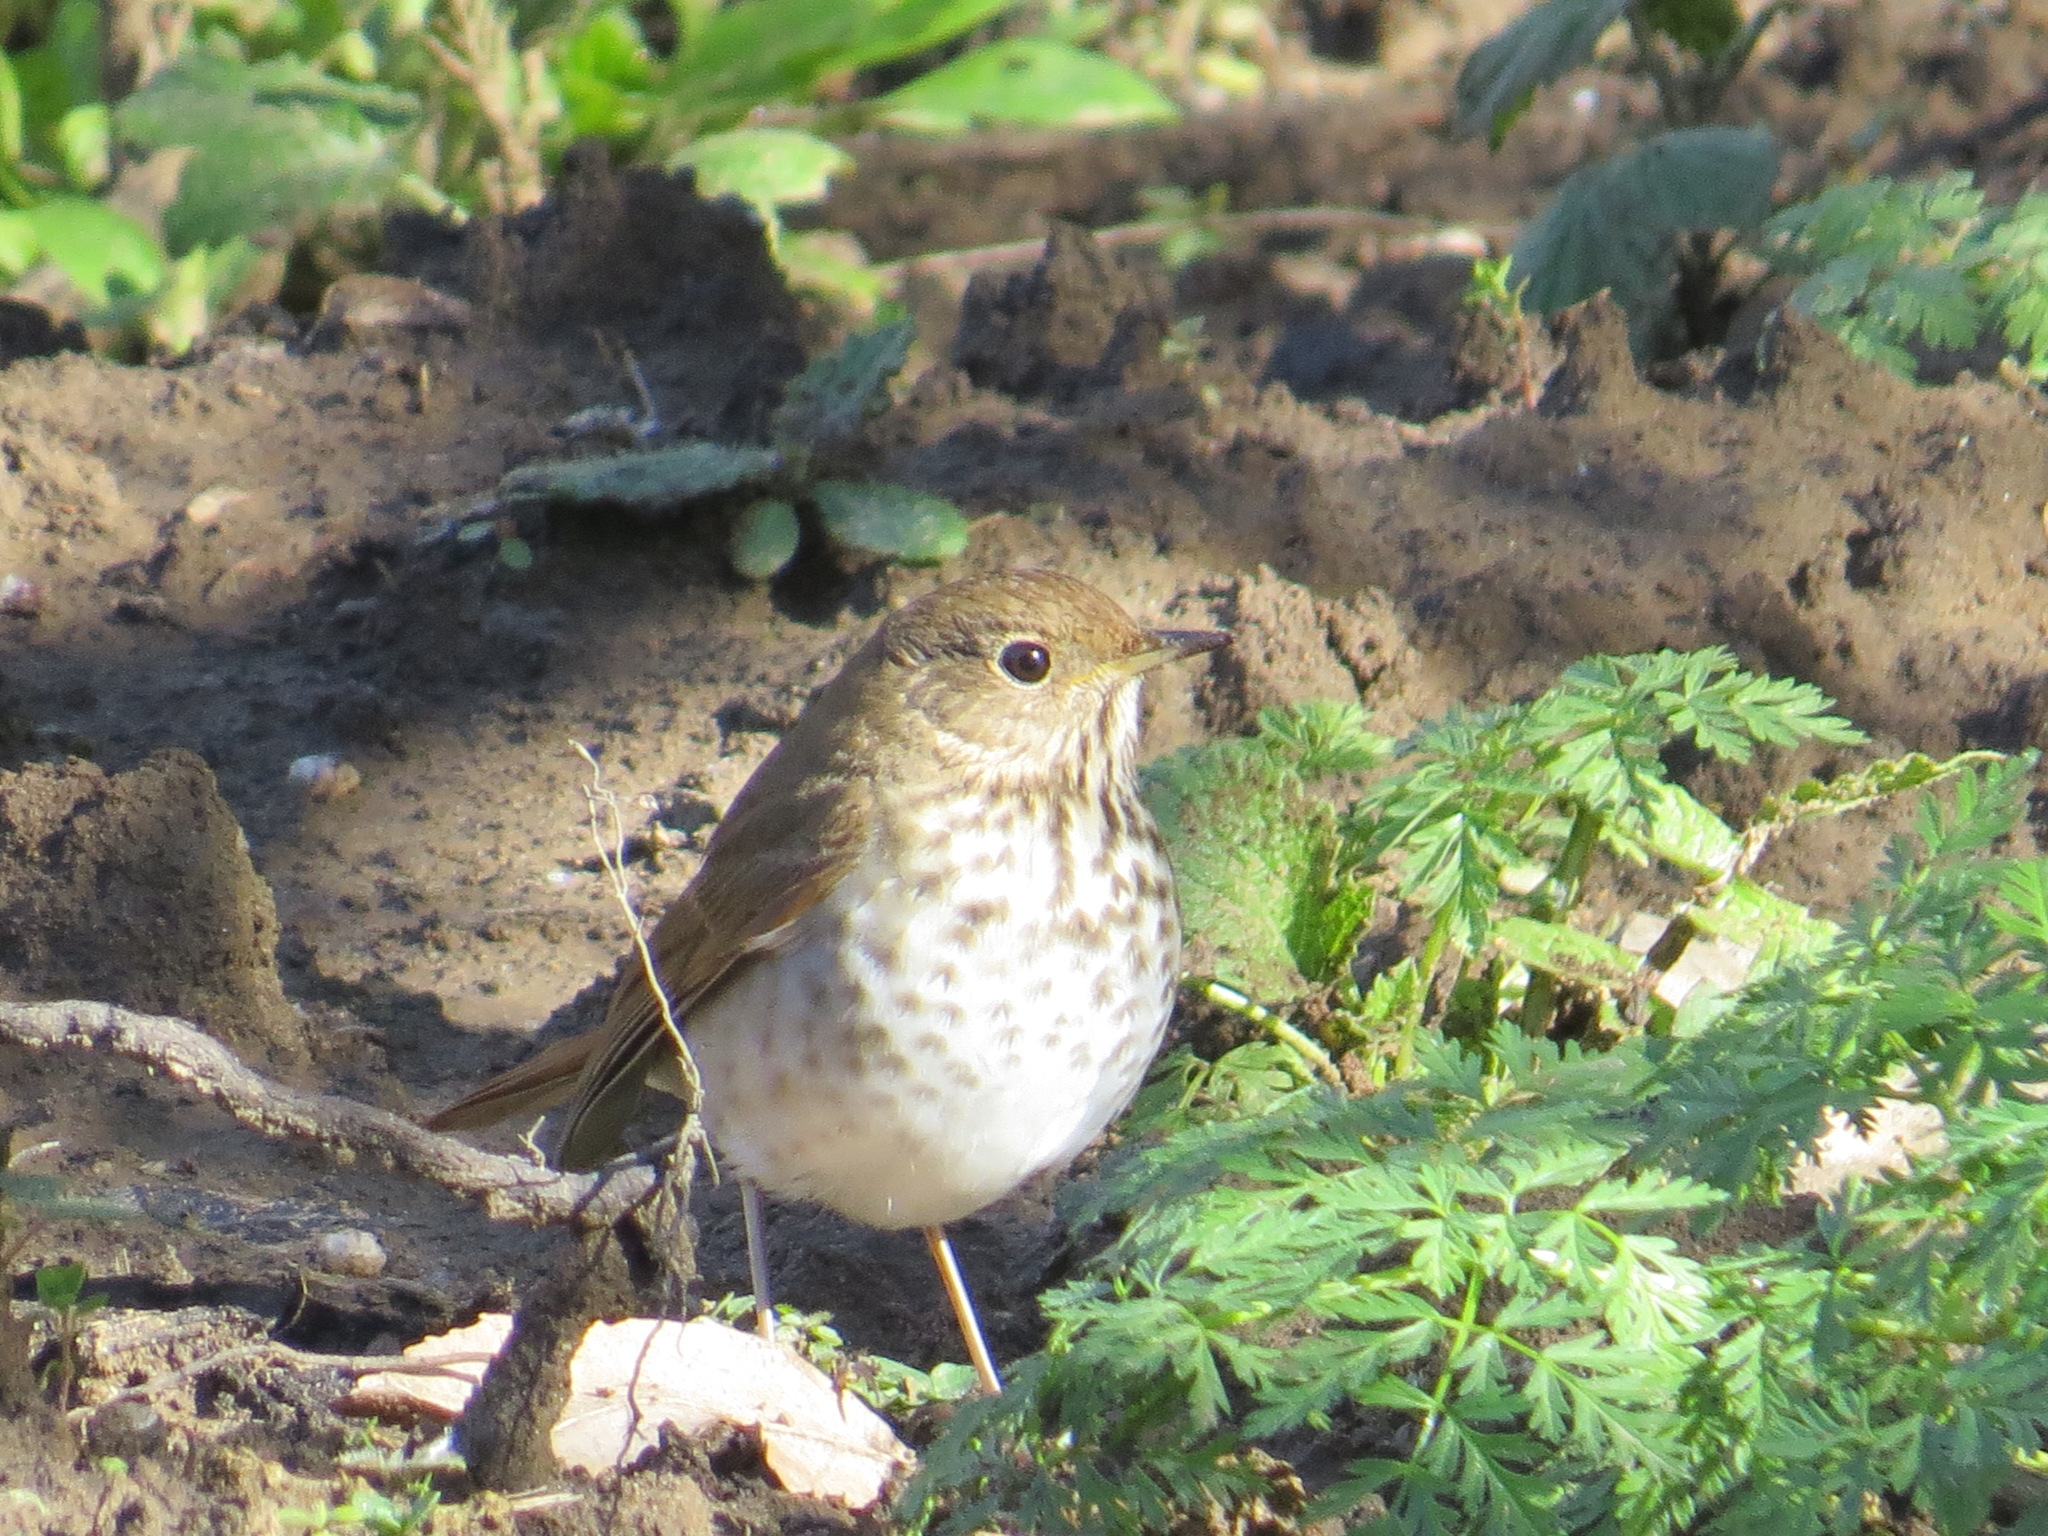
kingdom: Animalia
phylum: Chordata
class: Aves
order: Passeriformes
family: Turdidae
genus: Catharus
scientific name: Catharus guttatus
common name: Hermit thrush
